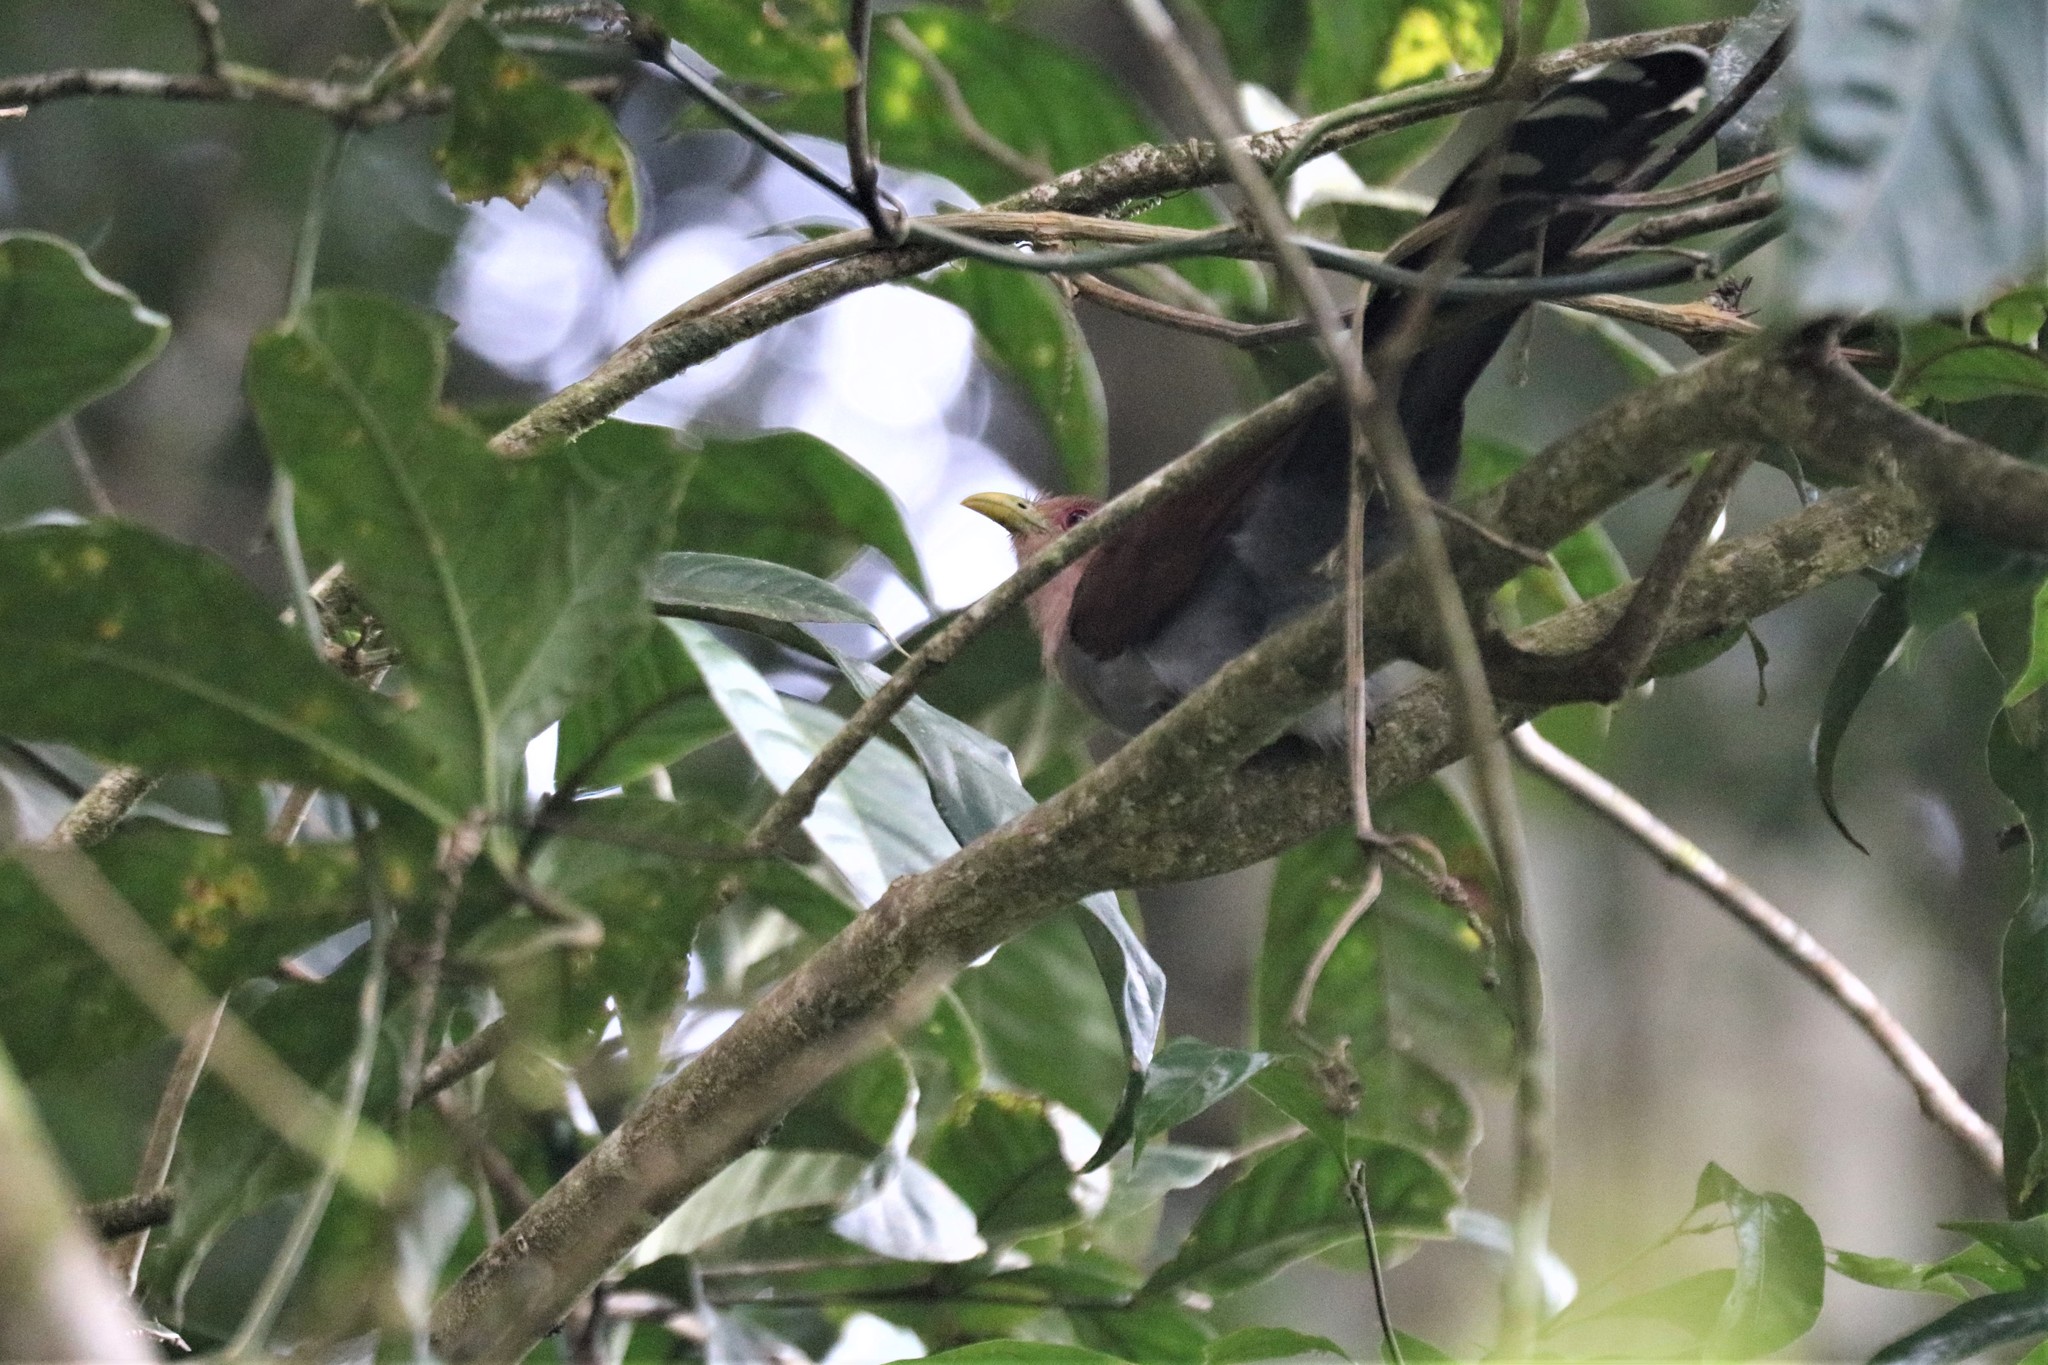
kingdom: Animalia
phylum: Chordata
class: Aves
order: Cuculiformes
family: Cuculidae
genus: Piaya
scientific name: Piaya cayana
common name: Squirrel cuckoo
